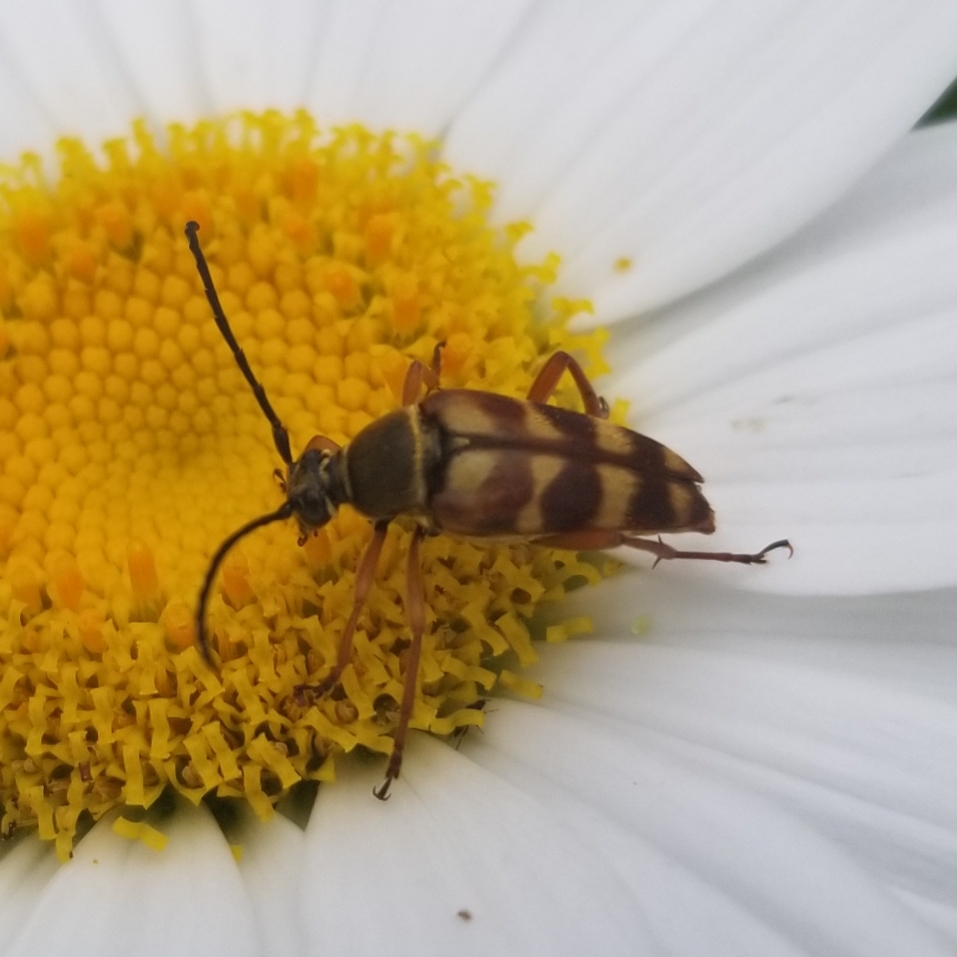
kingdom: Animalia
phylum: Arthropoda
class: Insecta
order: Coleoptera
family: Cerambycidae
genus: Typocerus
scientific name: Typocerus velutinus
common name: Banded longhorn beetle
